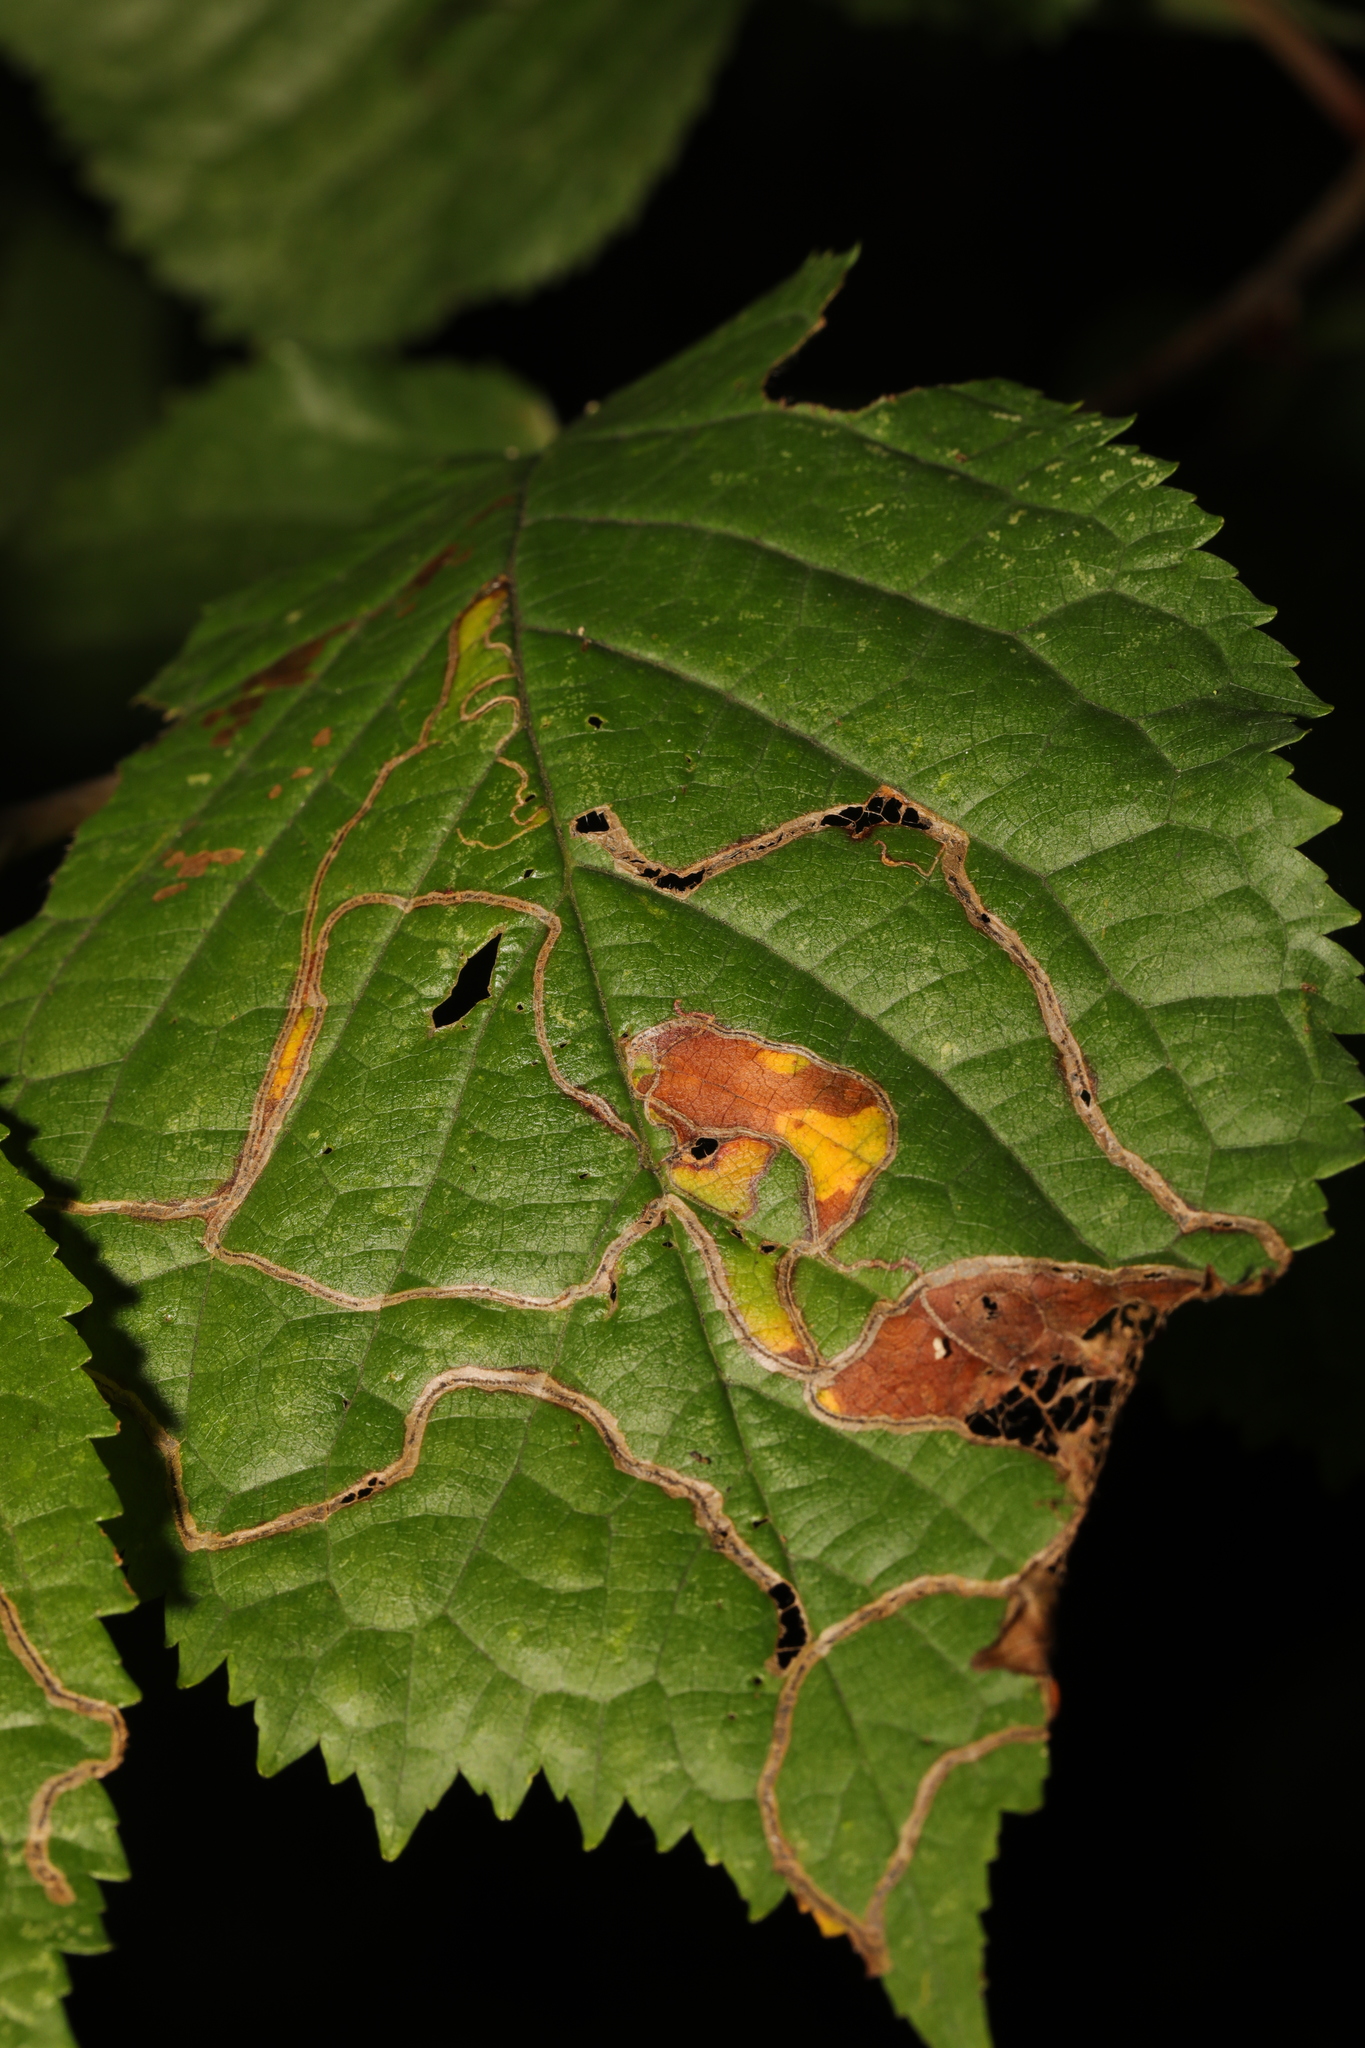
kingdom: Animalia
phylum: Arthropoda
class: Insecta
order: Lepidoptera
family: Lyonetiidae
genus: Lyonetia
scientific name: Lyonetia clerkella
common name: Apple leaf miner
